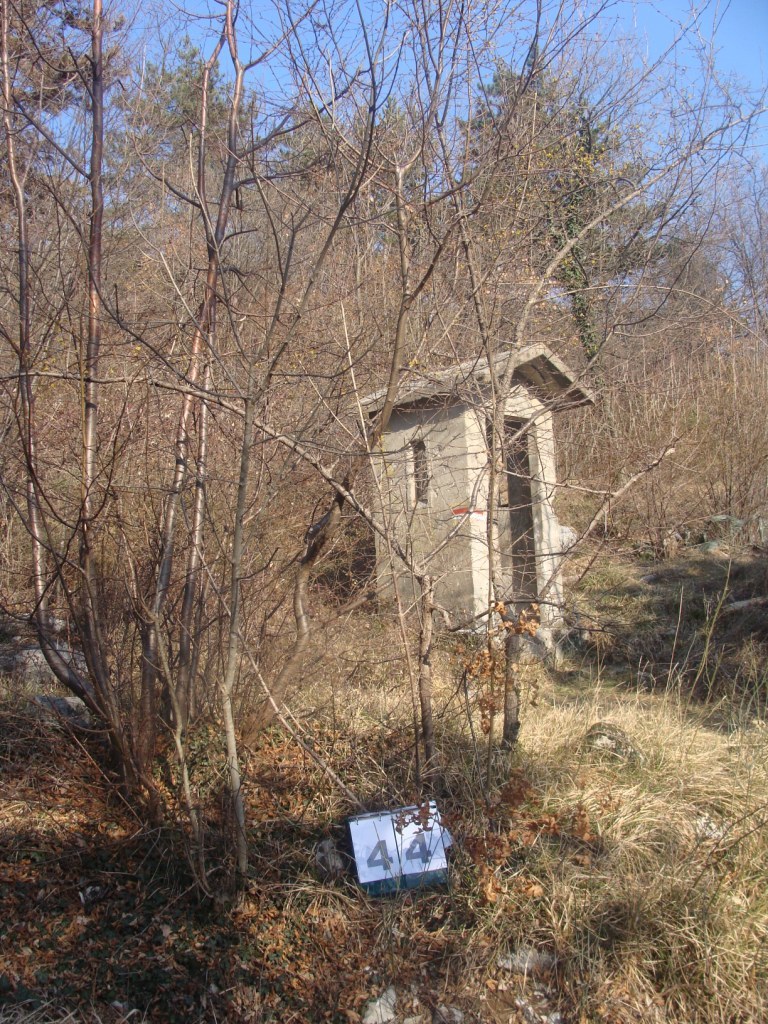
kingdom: Plantae
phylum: Tracheophyta
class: Magnoliopsida
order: Cornales
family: Cornaceae
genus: Cornus
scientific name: Cornus mas
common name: Cornelian-cherry
